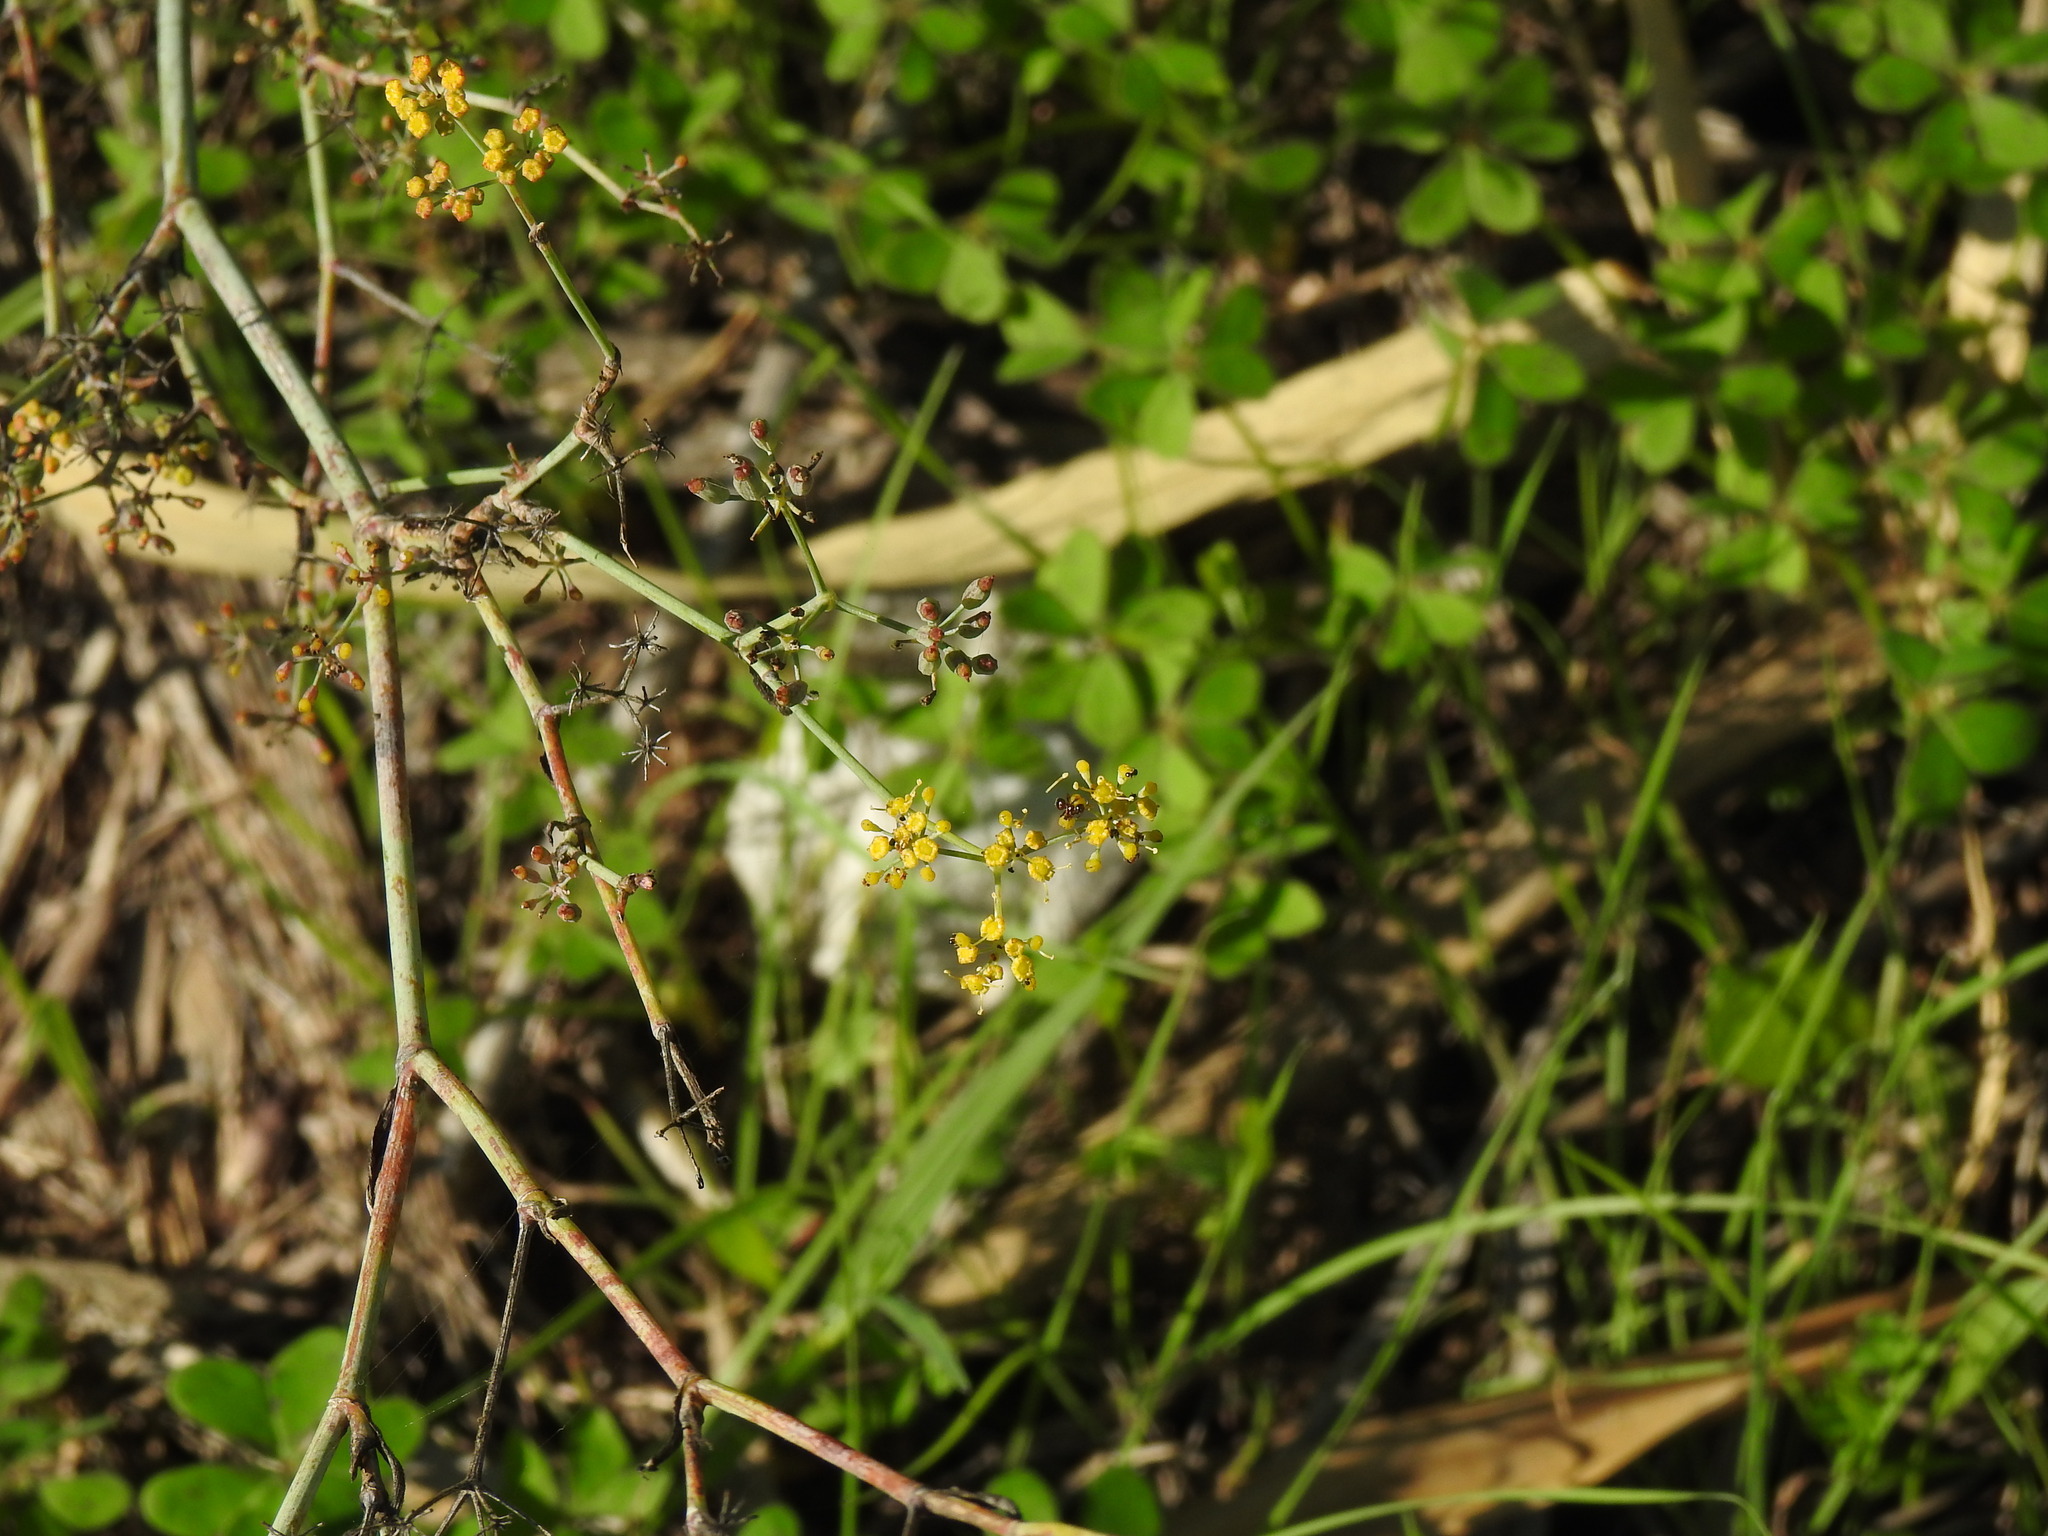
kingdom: Plantae
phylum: Tracheophyta
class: Magnoliopsida
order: Apiales
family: Apiaceae
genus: Foeniculum
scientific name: Foeniculum vulgare
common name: Fennel
